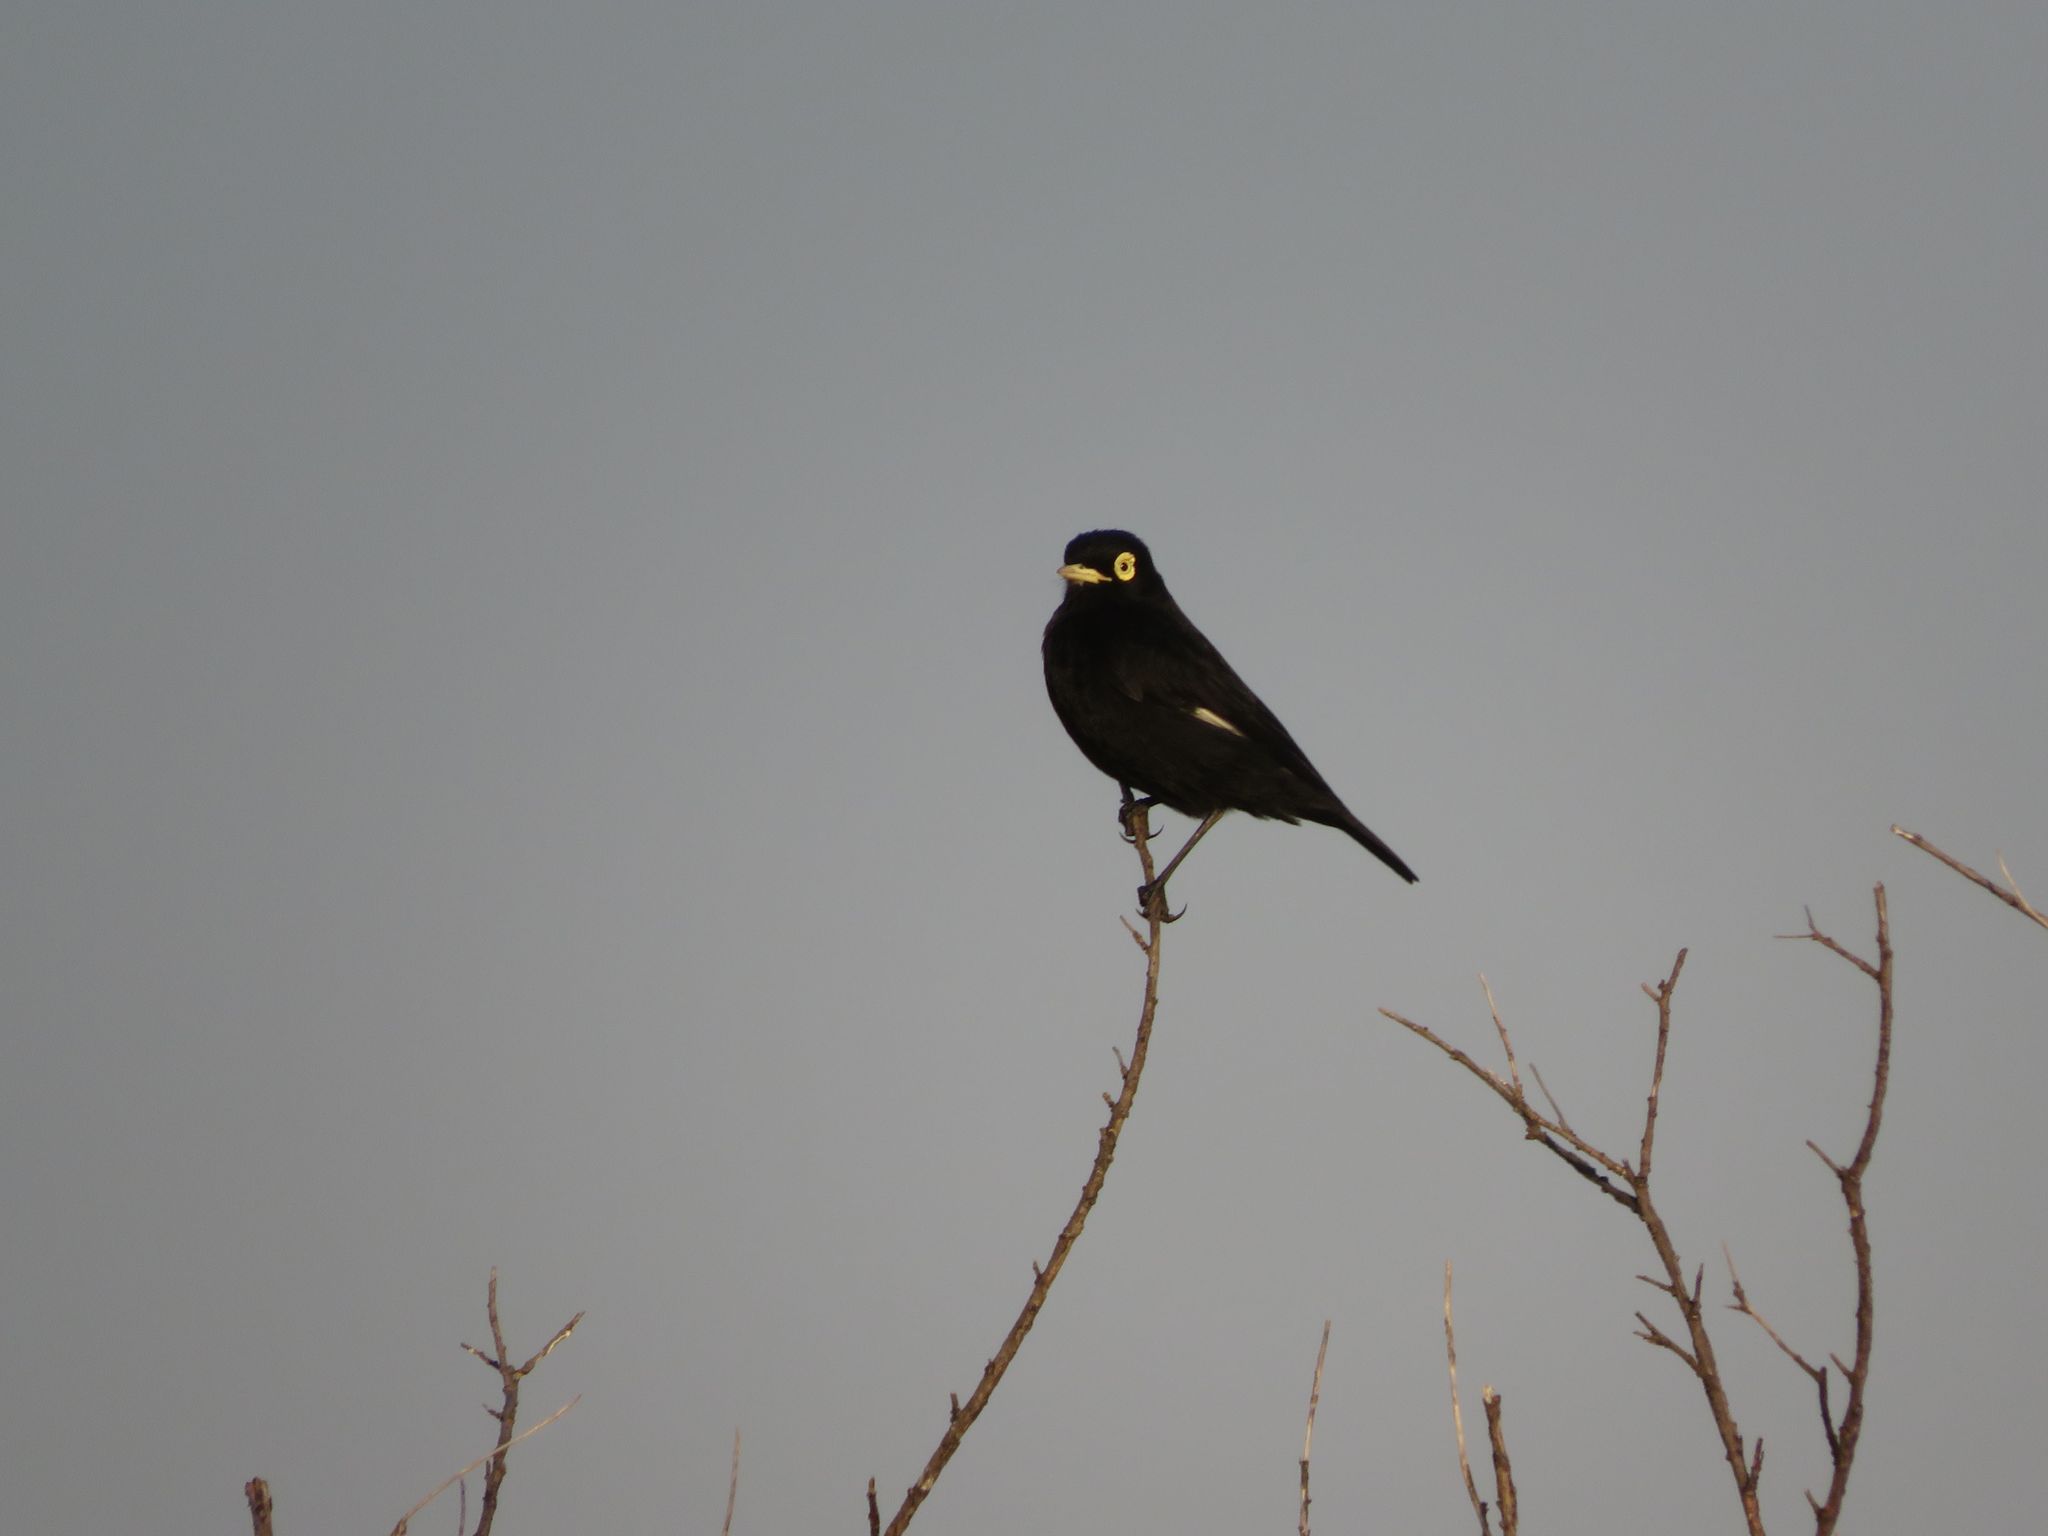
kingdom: Animalia
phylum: Chordata
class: Aves
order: Passeriformes
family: Tyrannidae
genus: Hymenops
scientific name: Hymenops perspicillatus
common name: Spectacled tyrant
